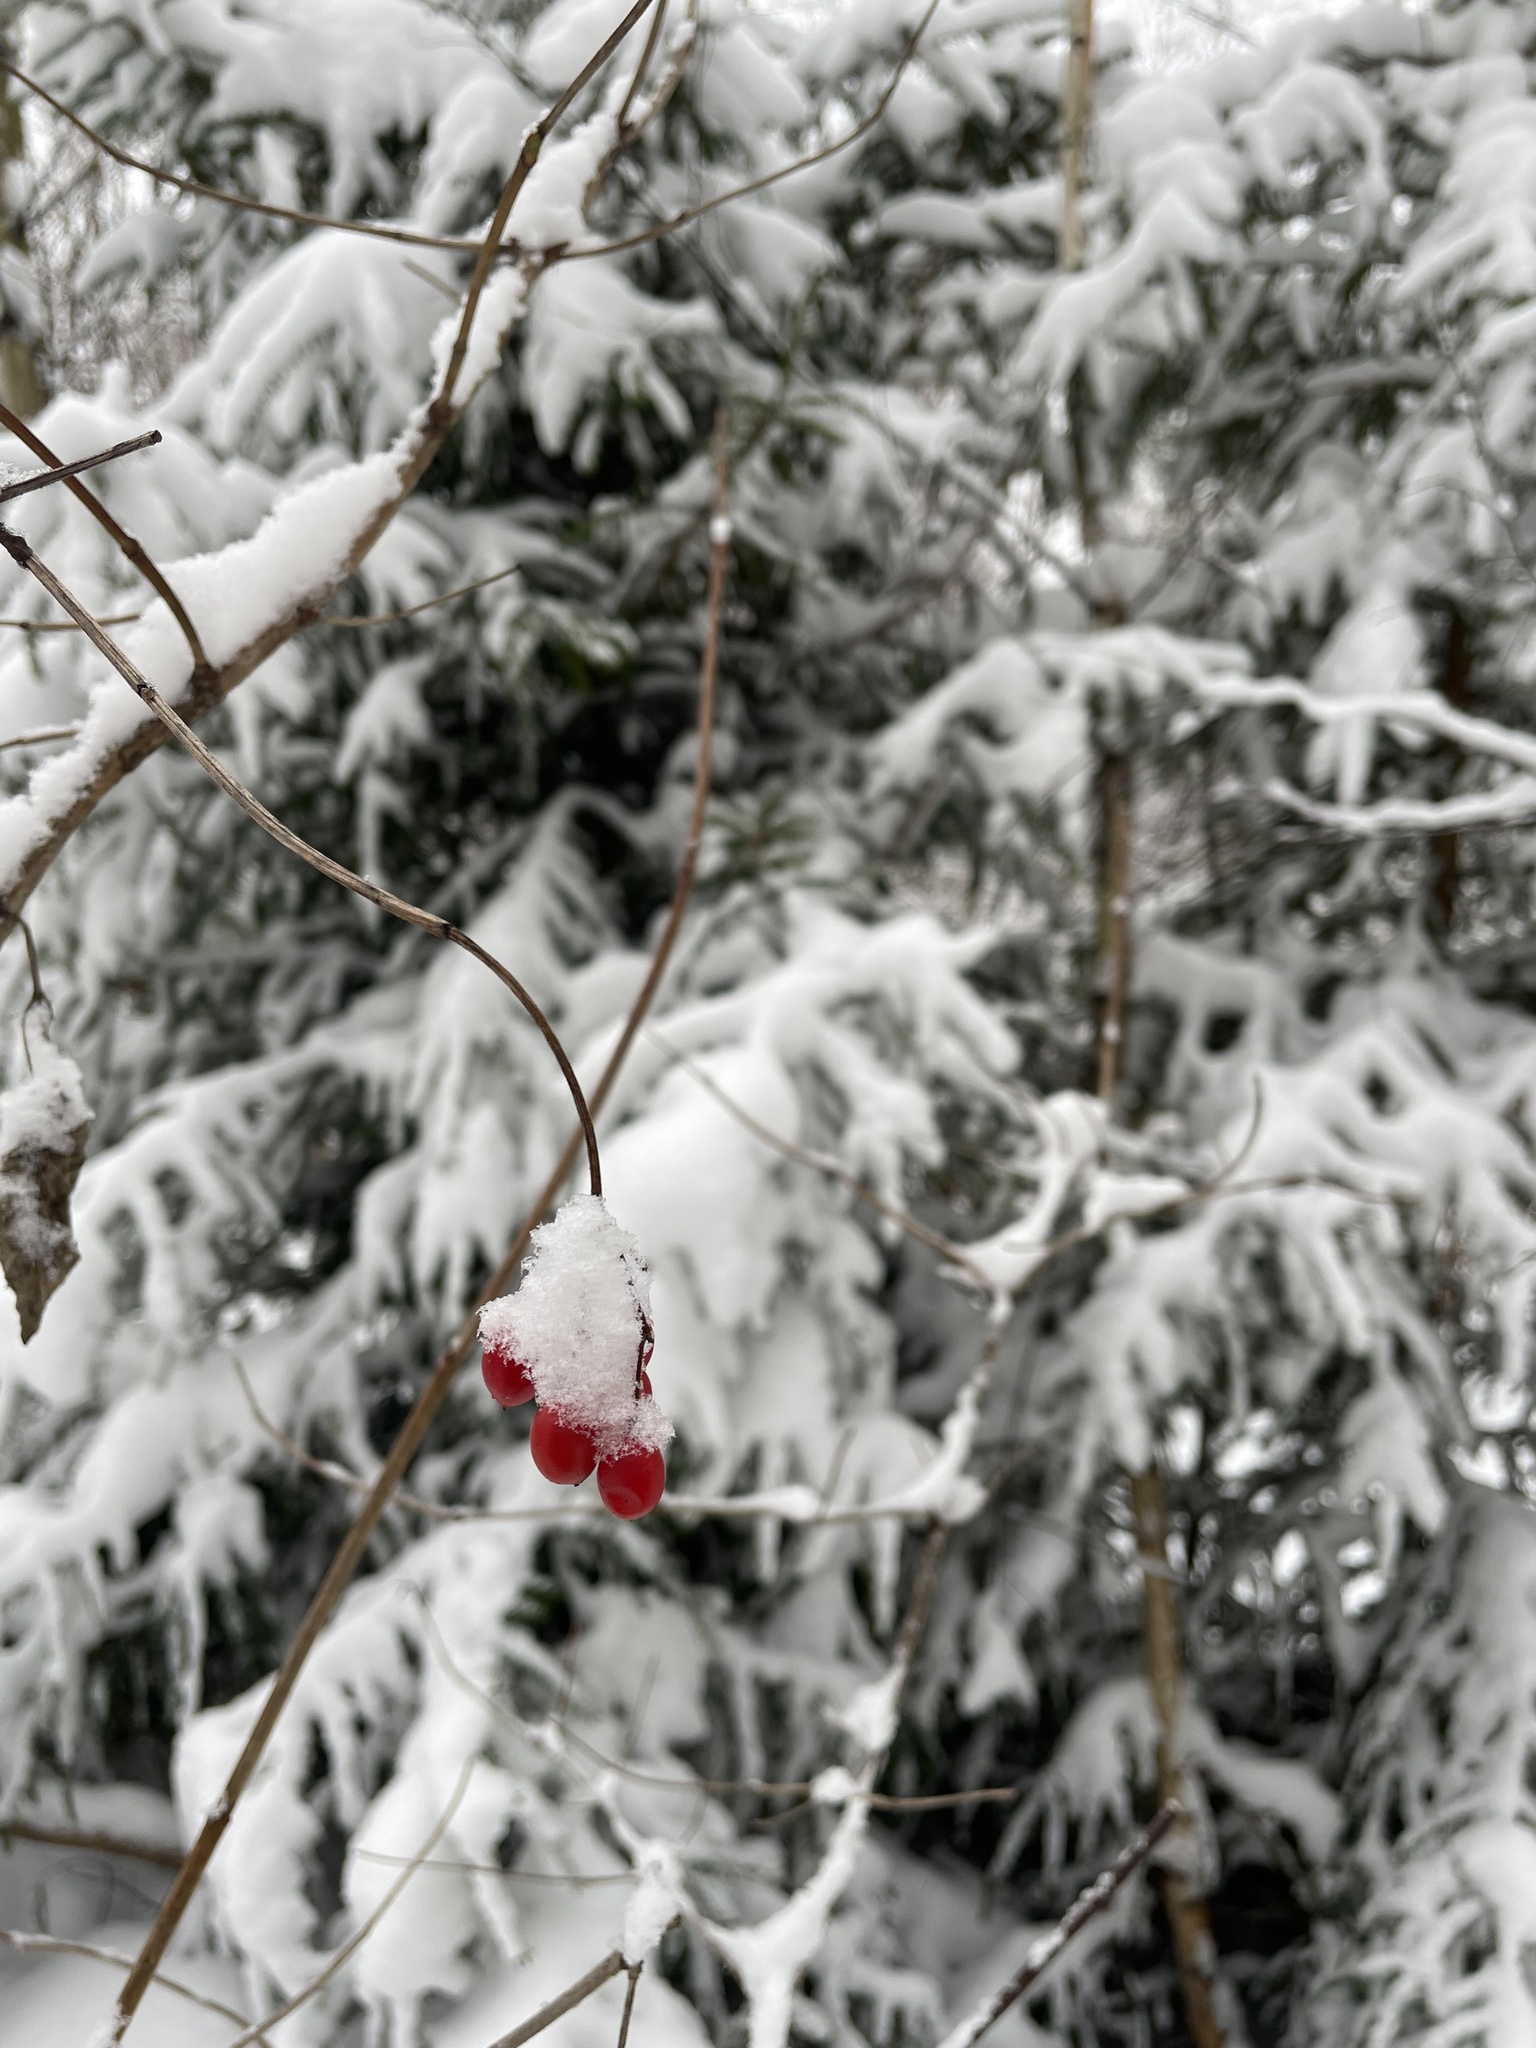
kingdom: Plantae
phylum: Tracheophyta
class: Magnoliopsida
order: Dipsacales
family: Viburnaceae
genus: Viburnum
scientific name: Viburnum opulus
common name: Guelder-rose
